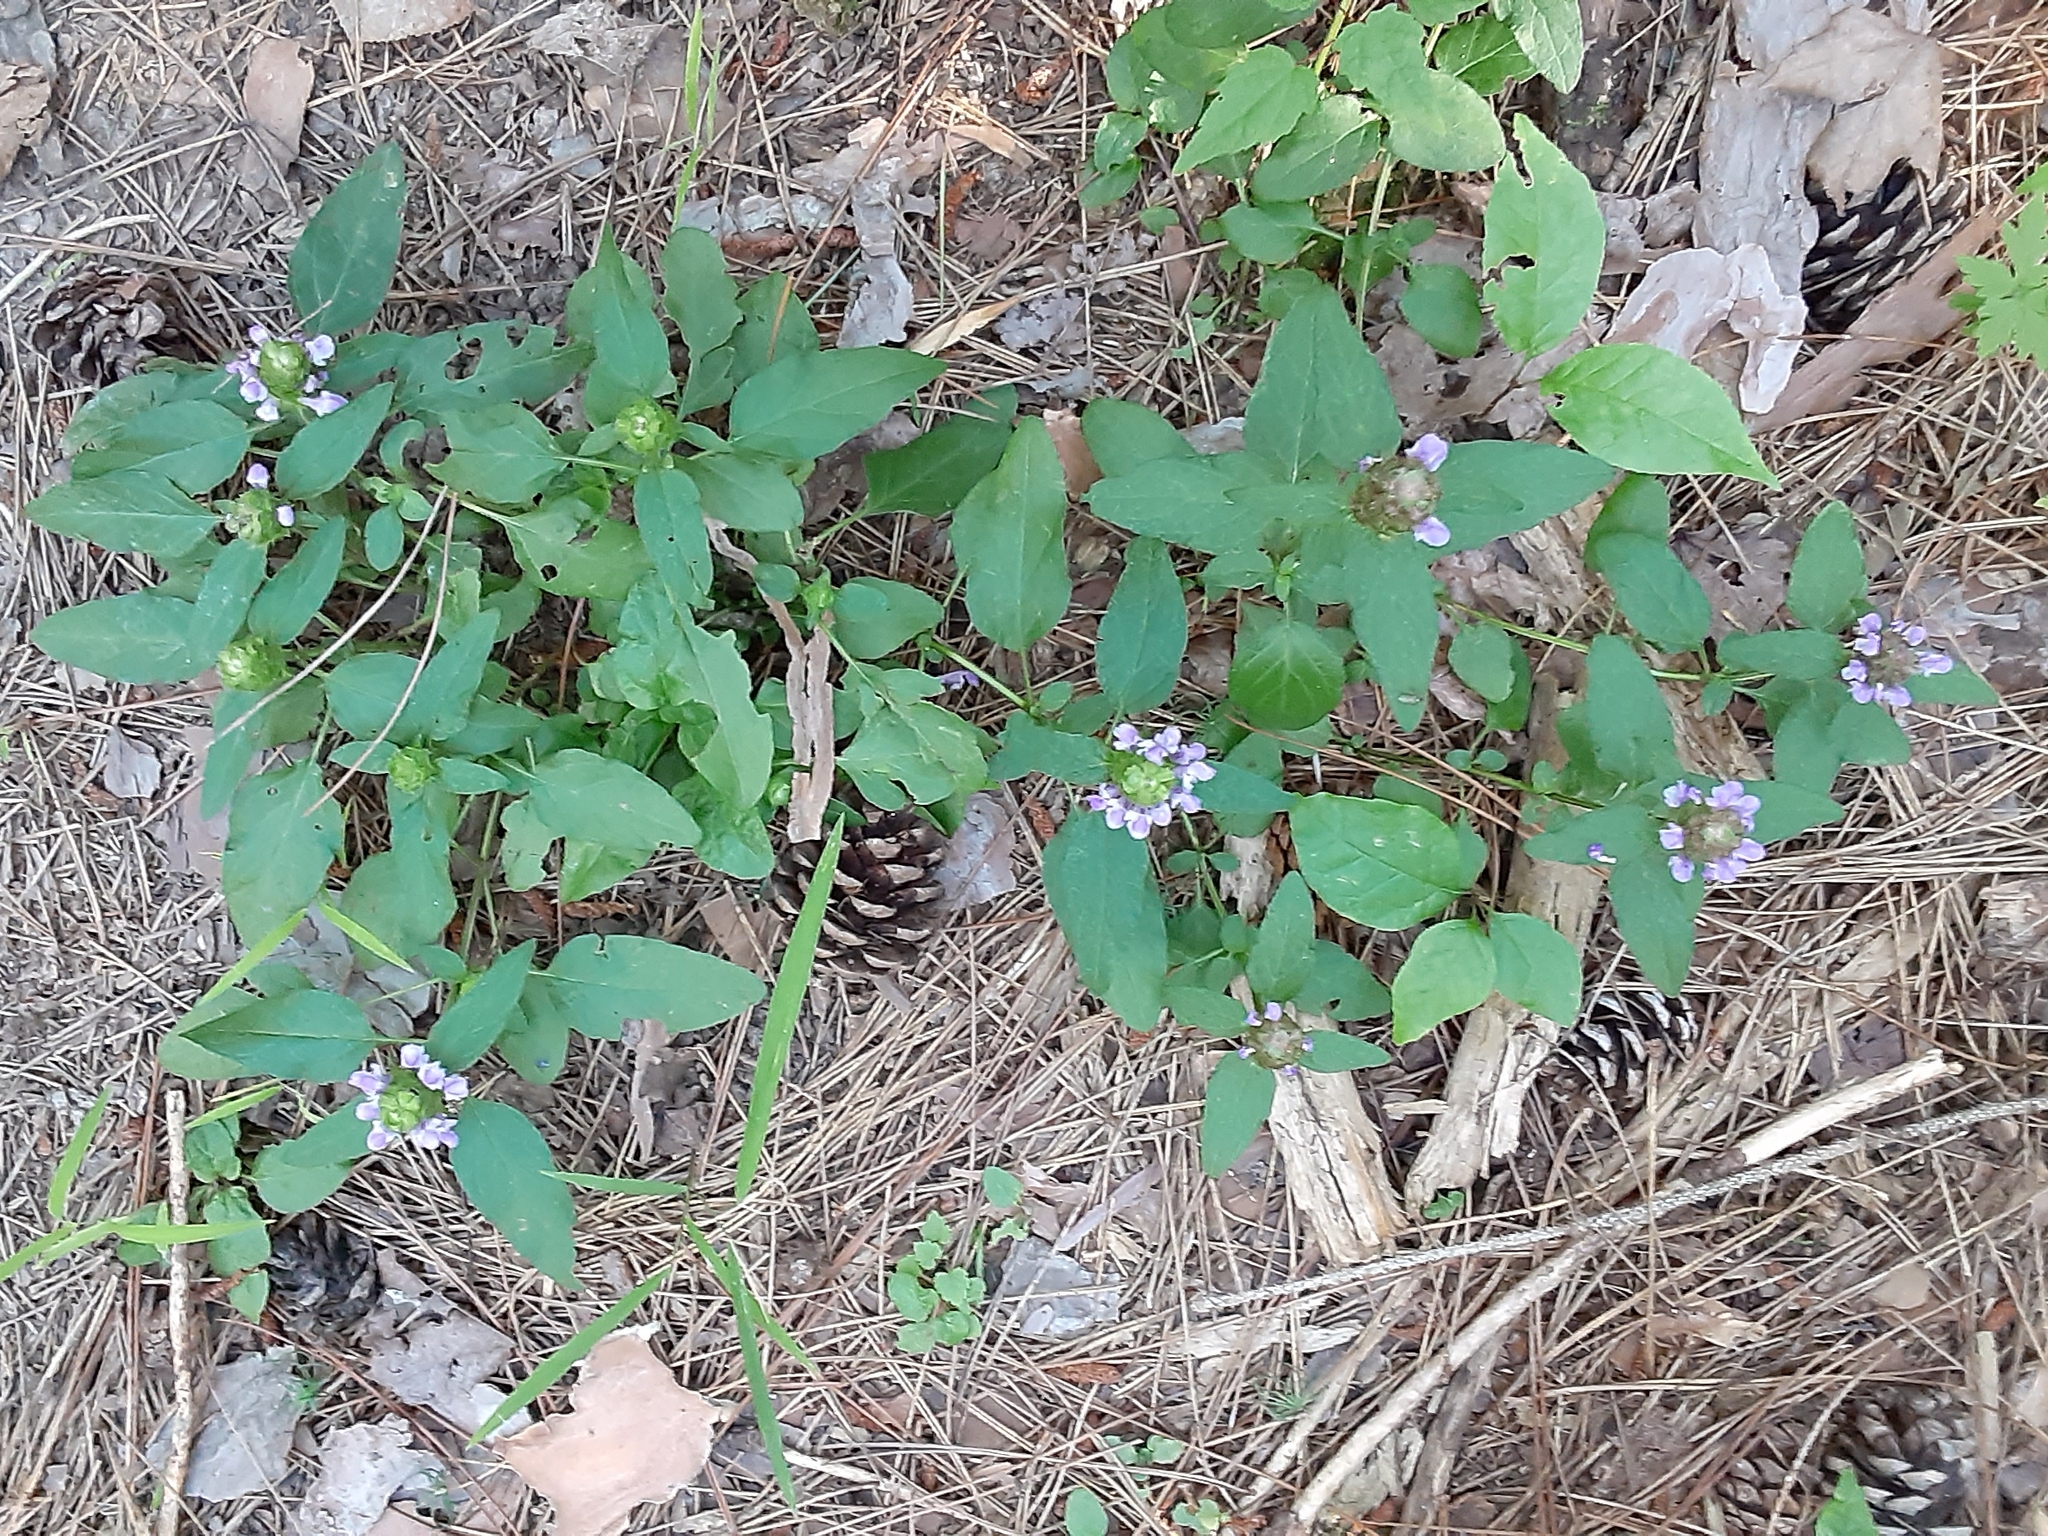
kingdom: Plantae
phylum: Tracheophyta
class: Magnoliopsida
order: Lamiales
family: Lamiaceae
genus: Prunella
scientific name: Prunella vulgaris
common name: Heal-all
